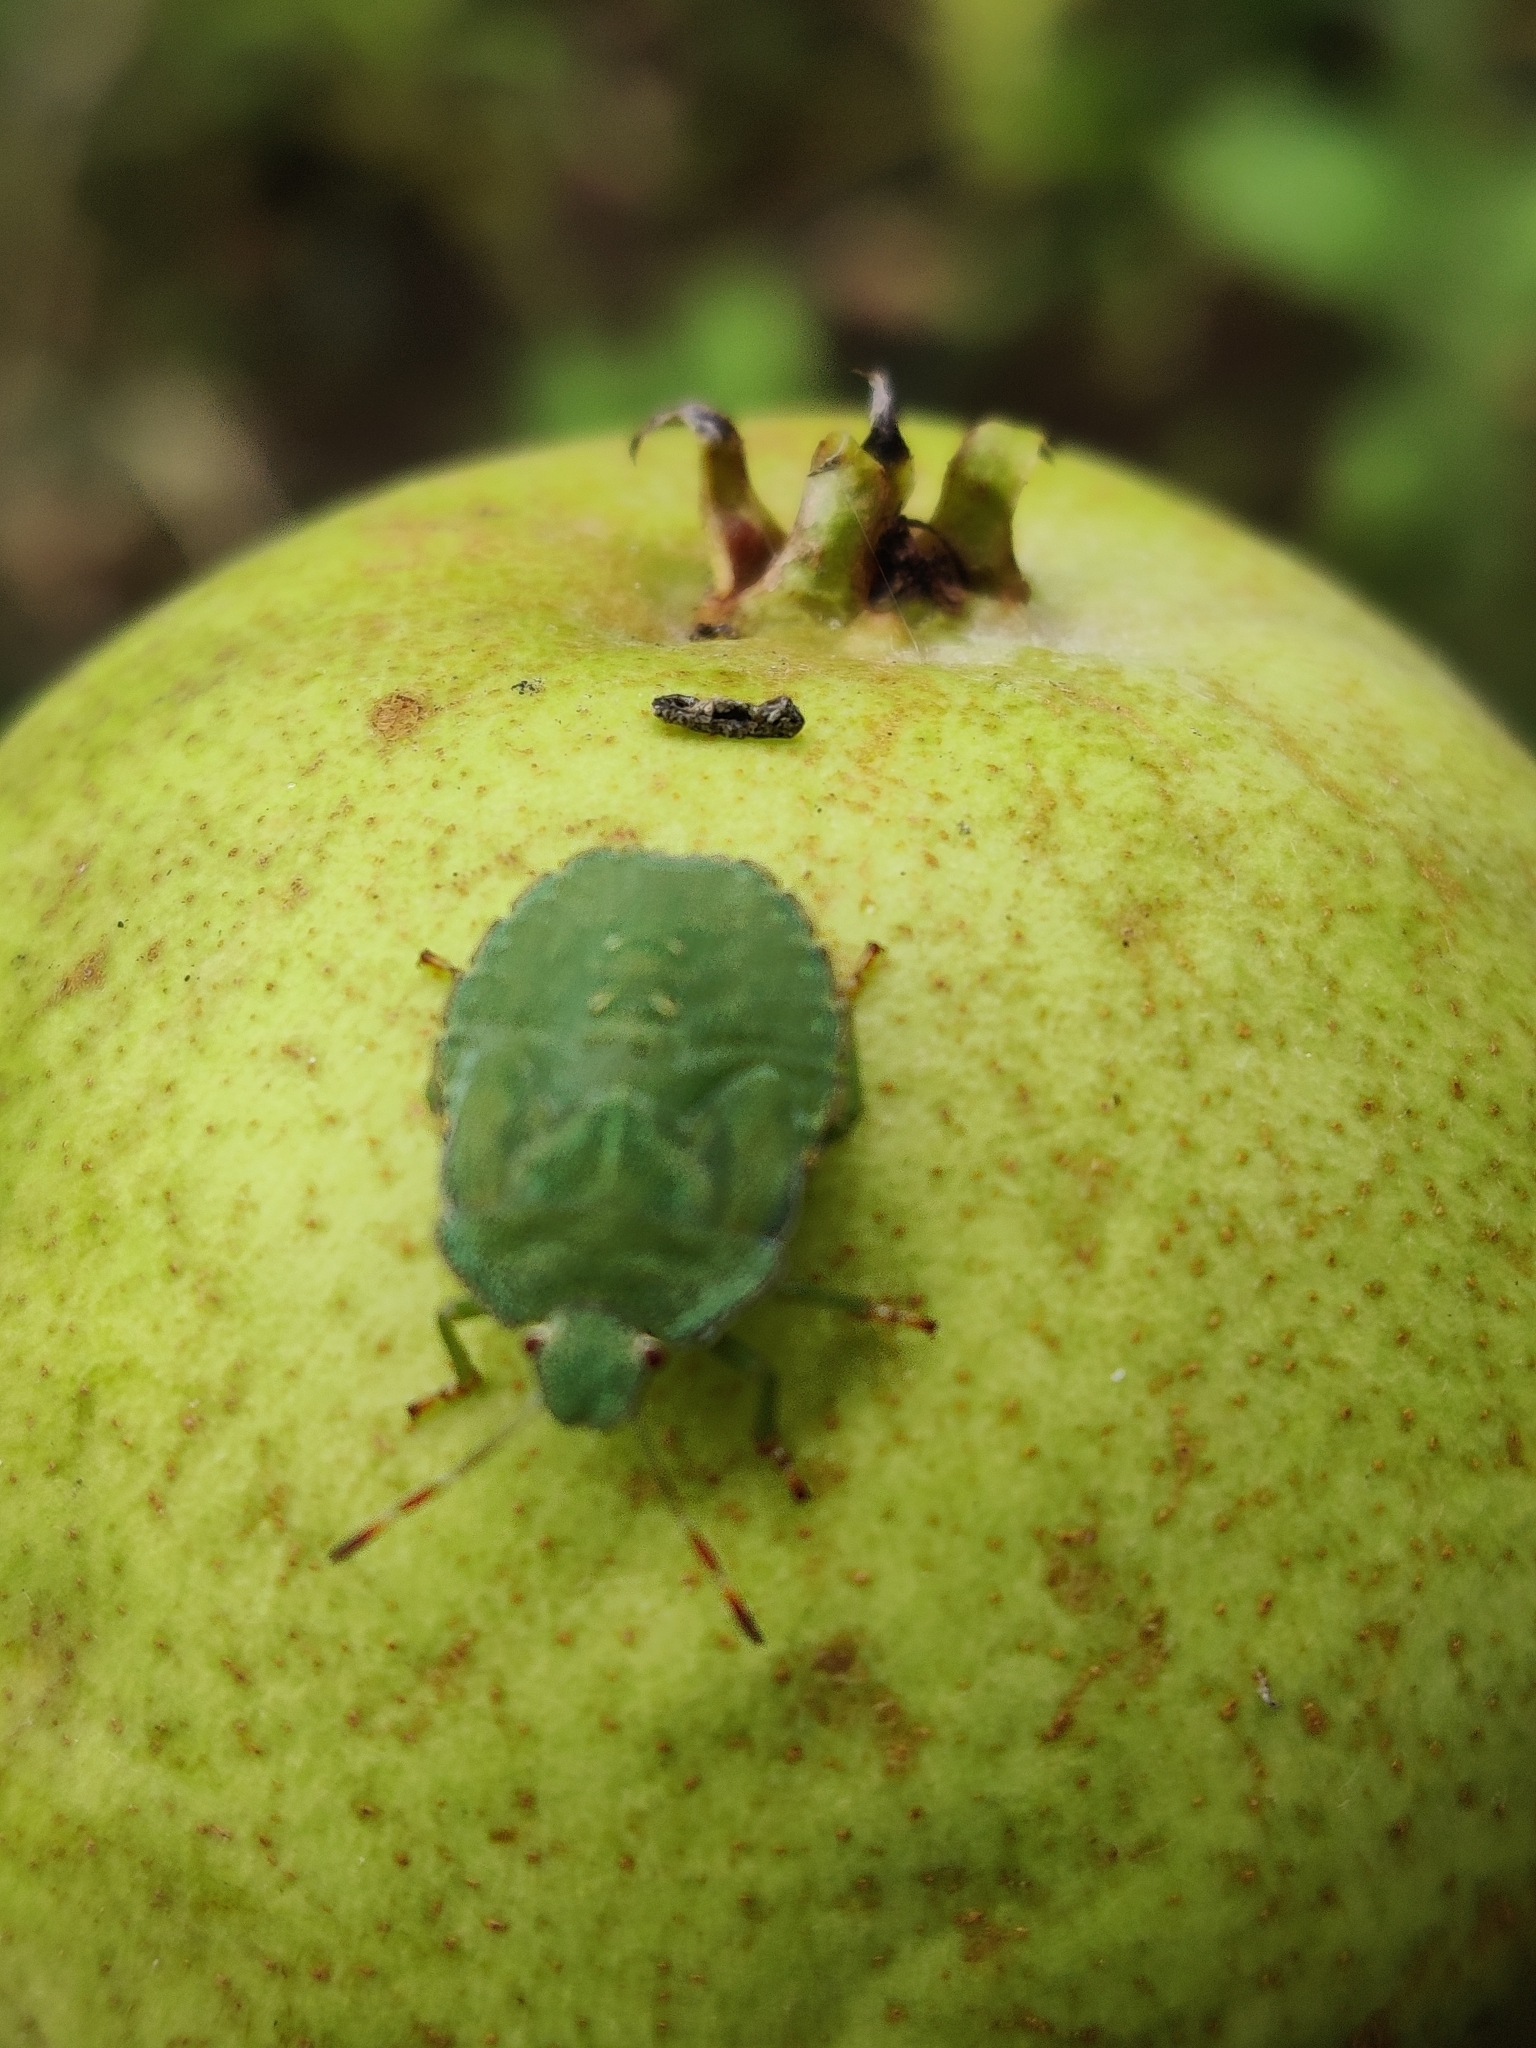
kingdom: Animalia
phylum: Arthropoda
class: Insecta
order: Hemiptera
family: Pentatomidae
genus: Palomena
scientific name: Palomena prasina
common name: Green shieldbug
